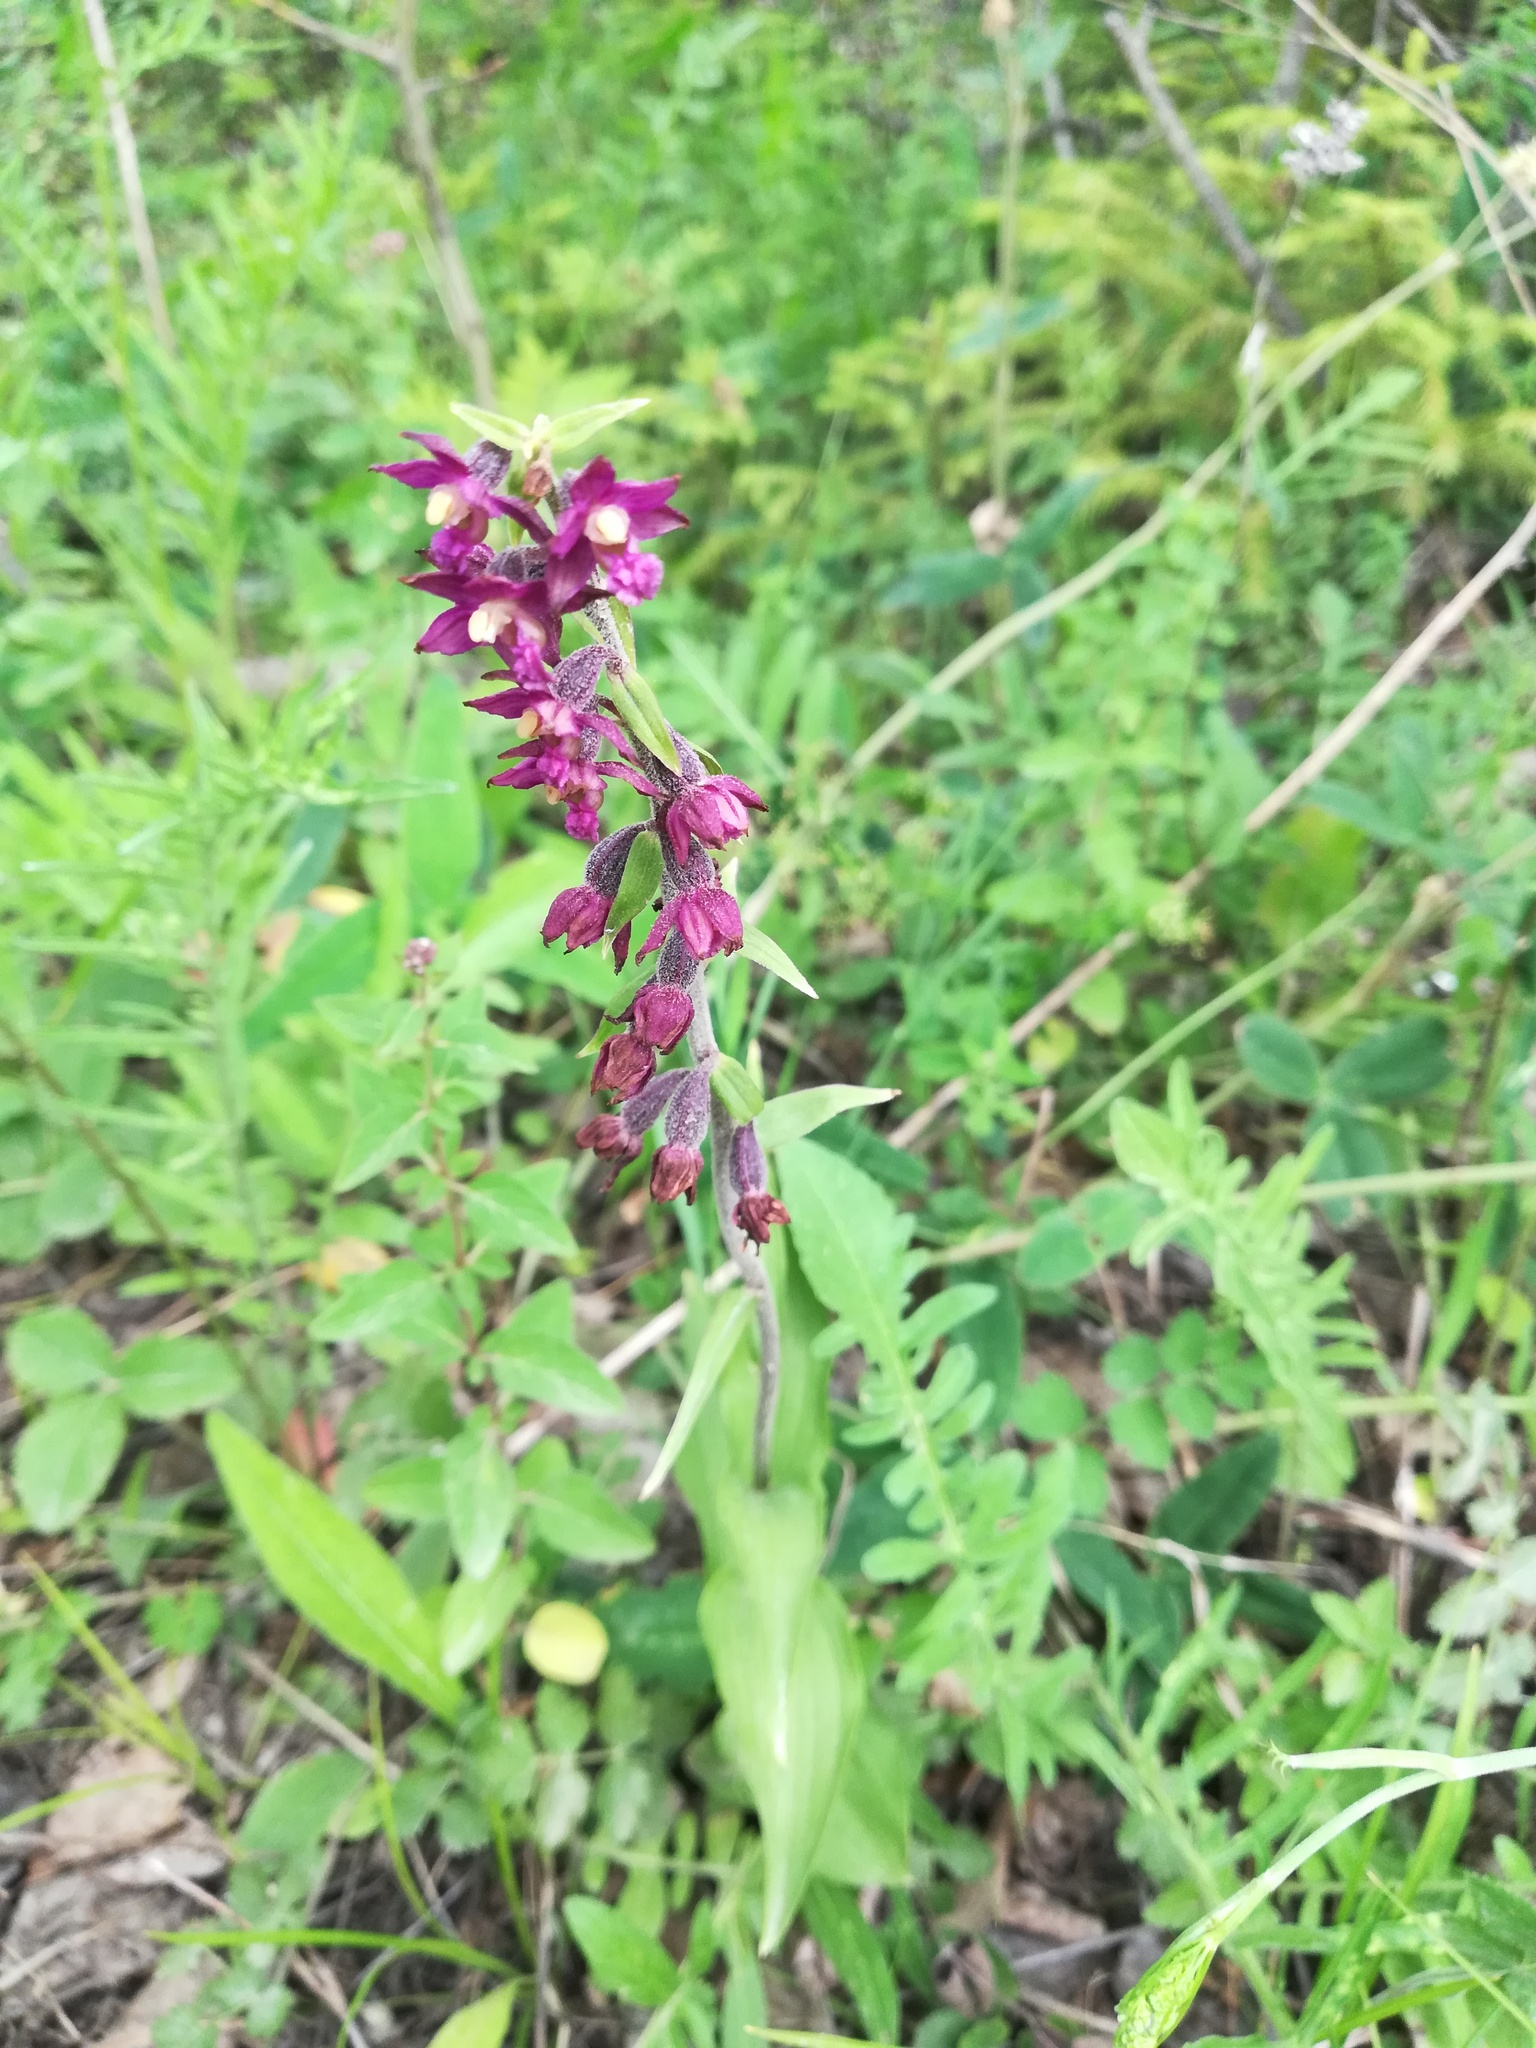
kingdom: Plantae
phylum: Tracheophyta
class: Liliopsida
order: Asparagales
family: Orchidaceae
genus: Epipactis
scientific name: Epipactis atrorubens
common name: Dark-red helleborine
